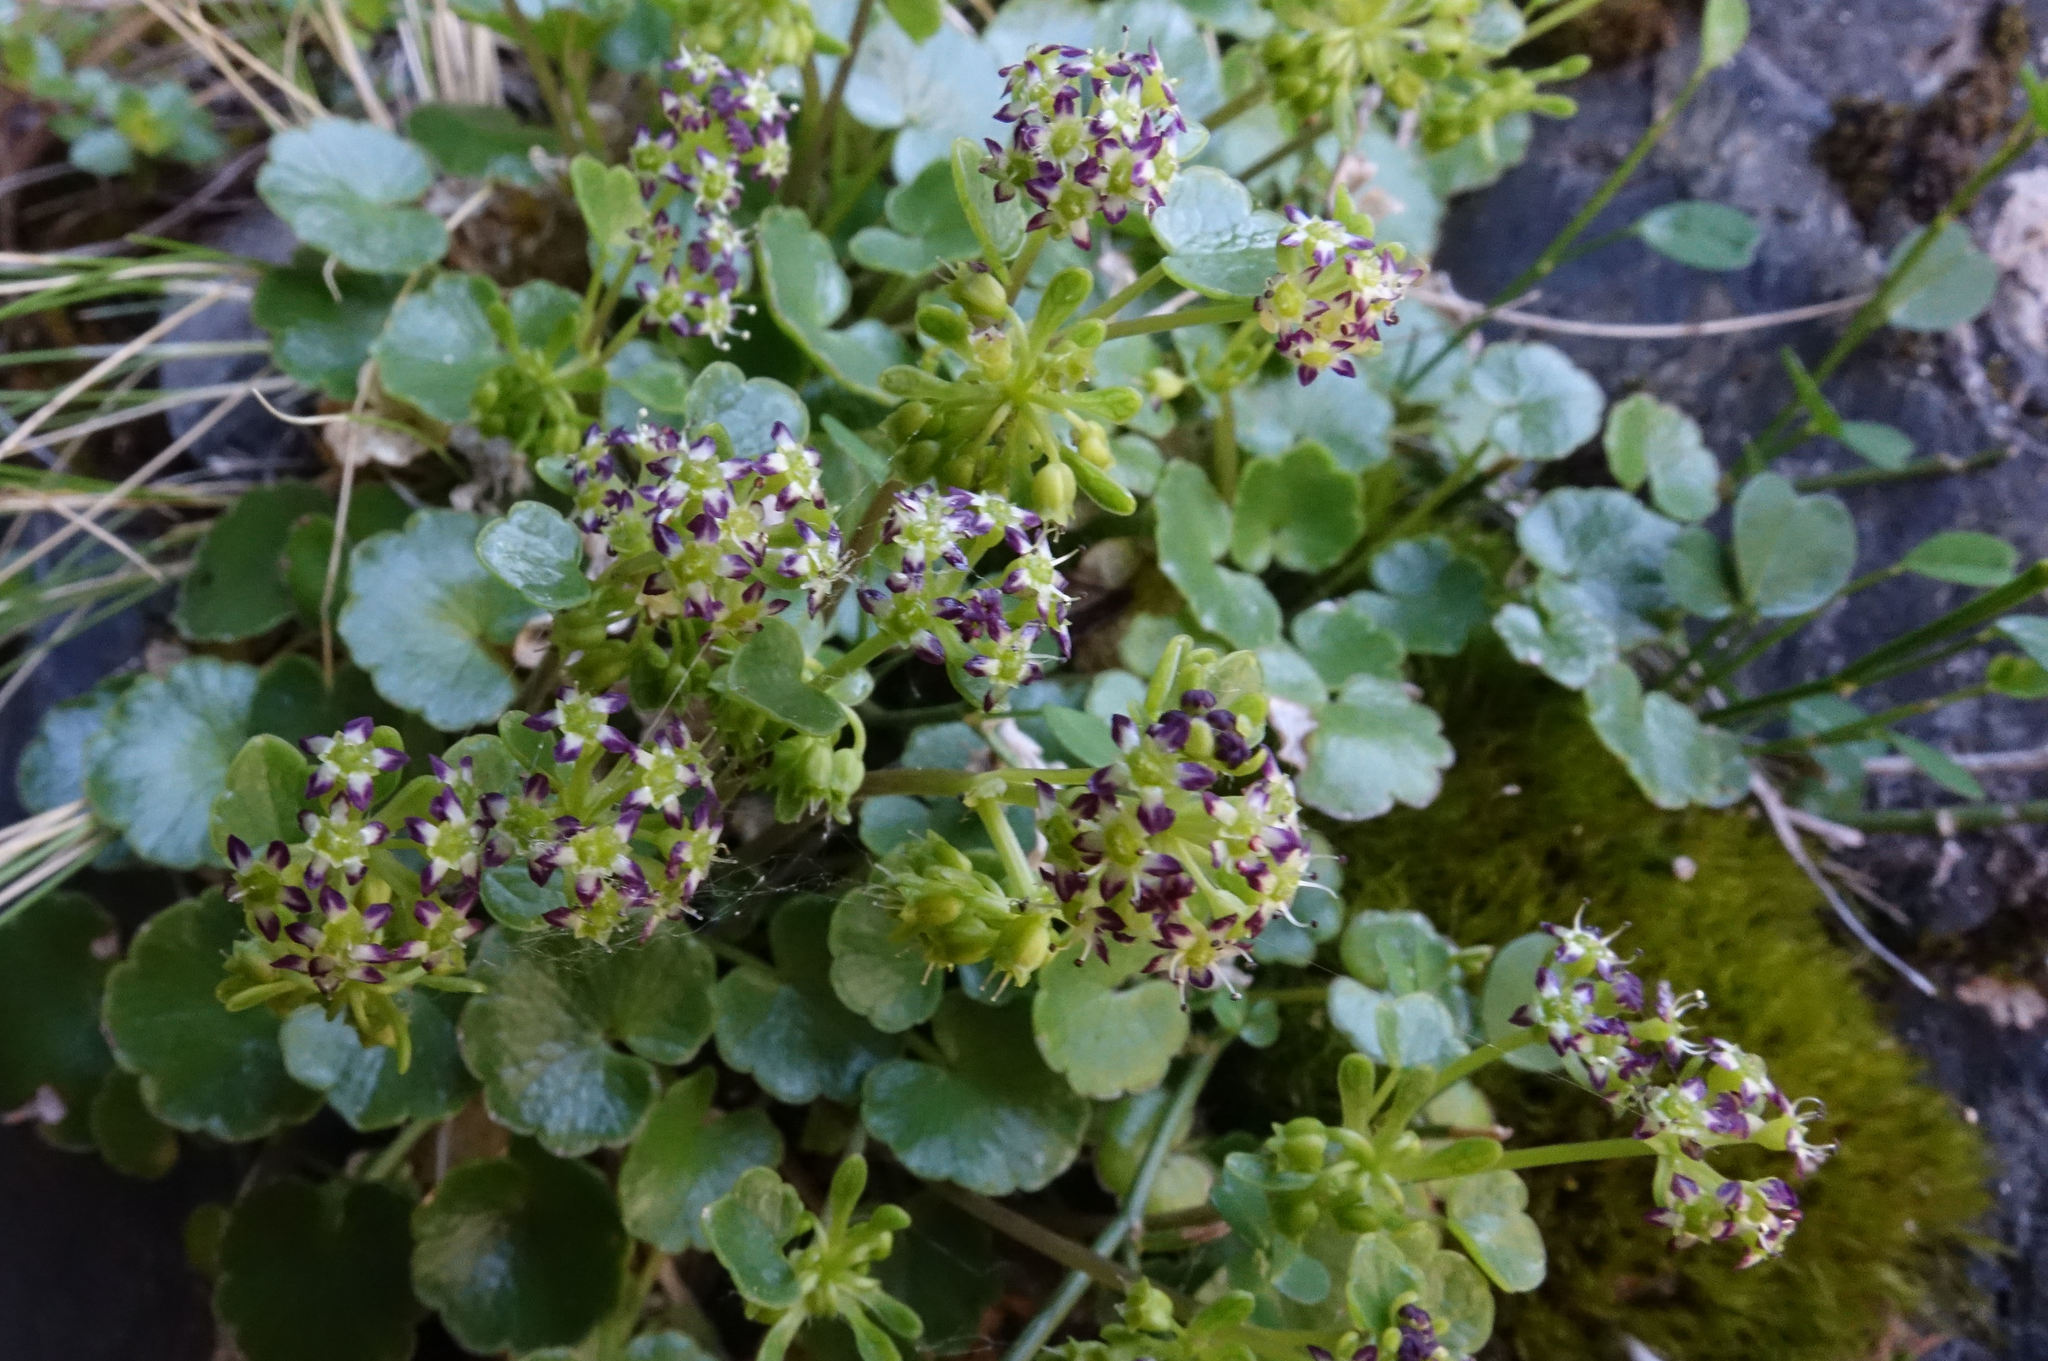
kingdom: Plantae
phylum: Tracheophyta
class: Magnoliopsida
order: Apiales
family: Apiaceae
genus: Azorella
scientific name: Azorella haastii
